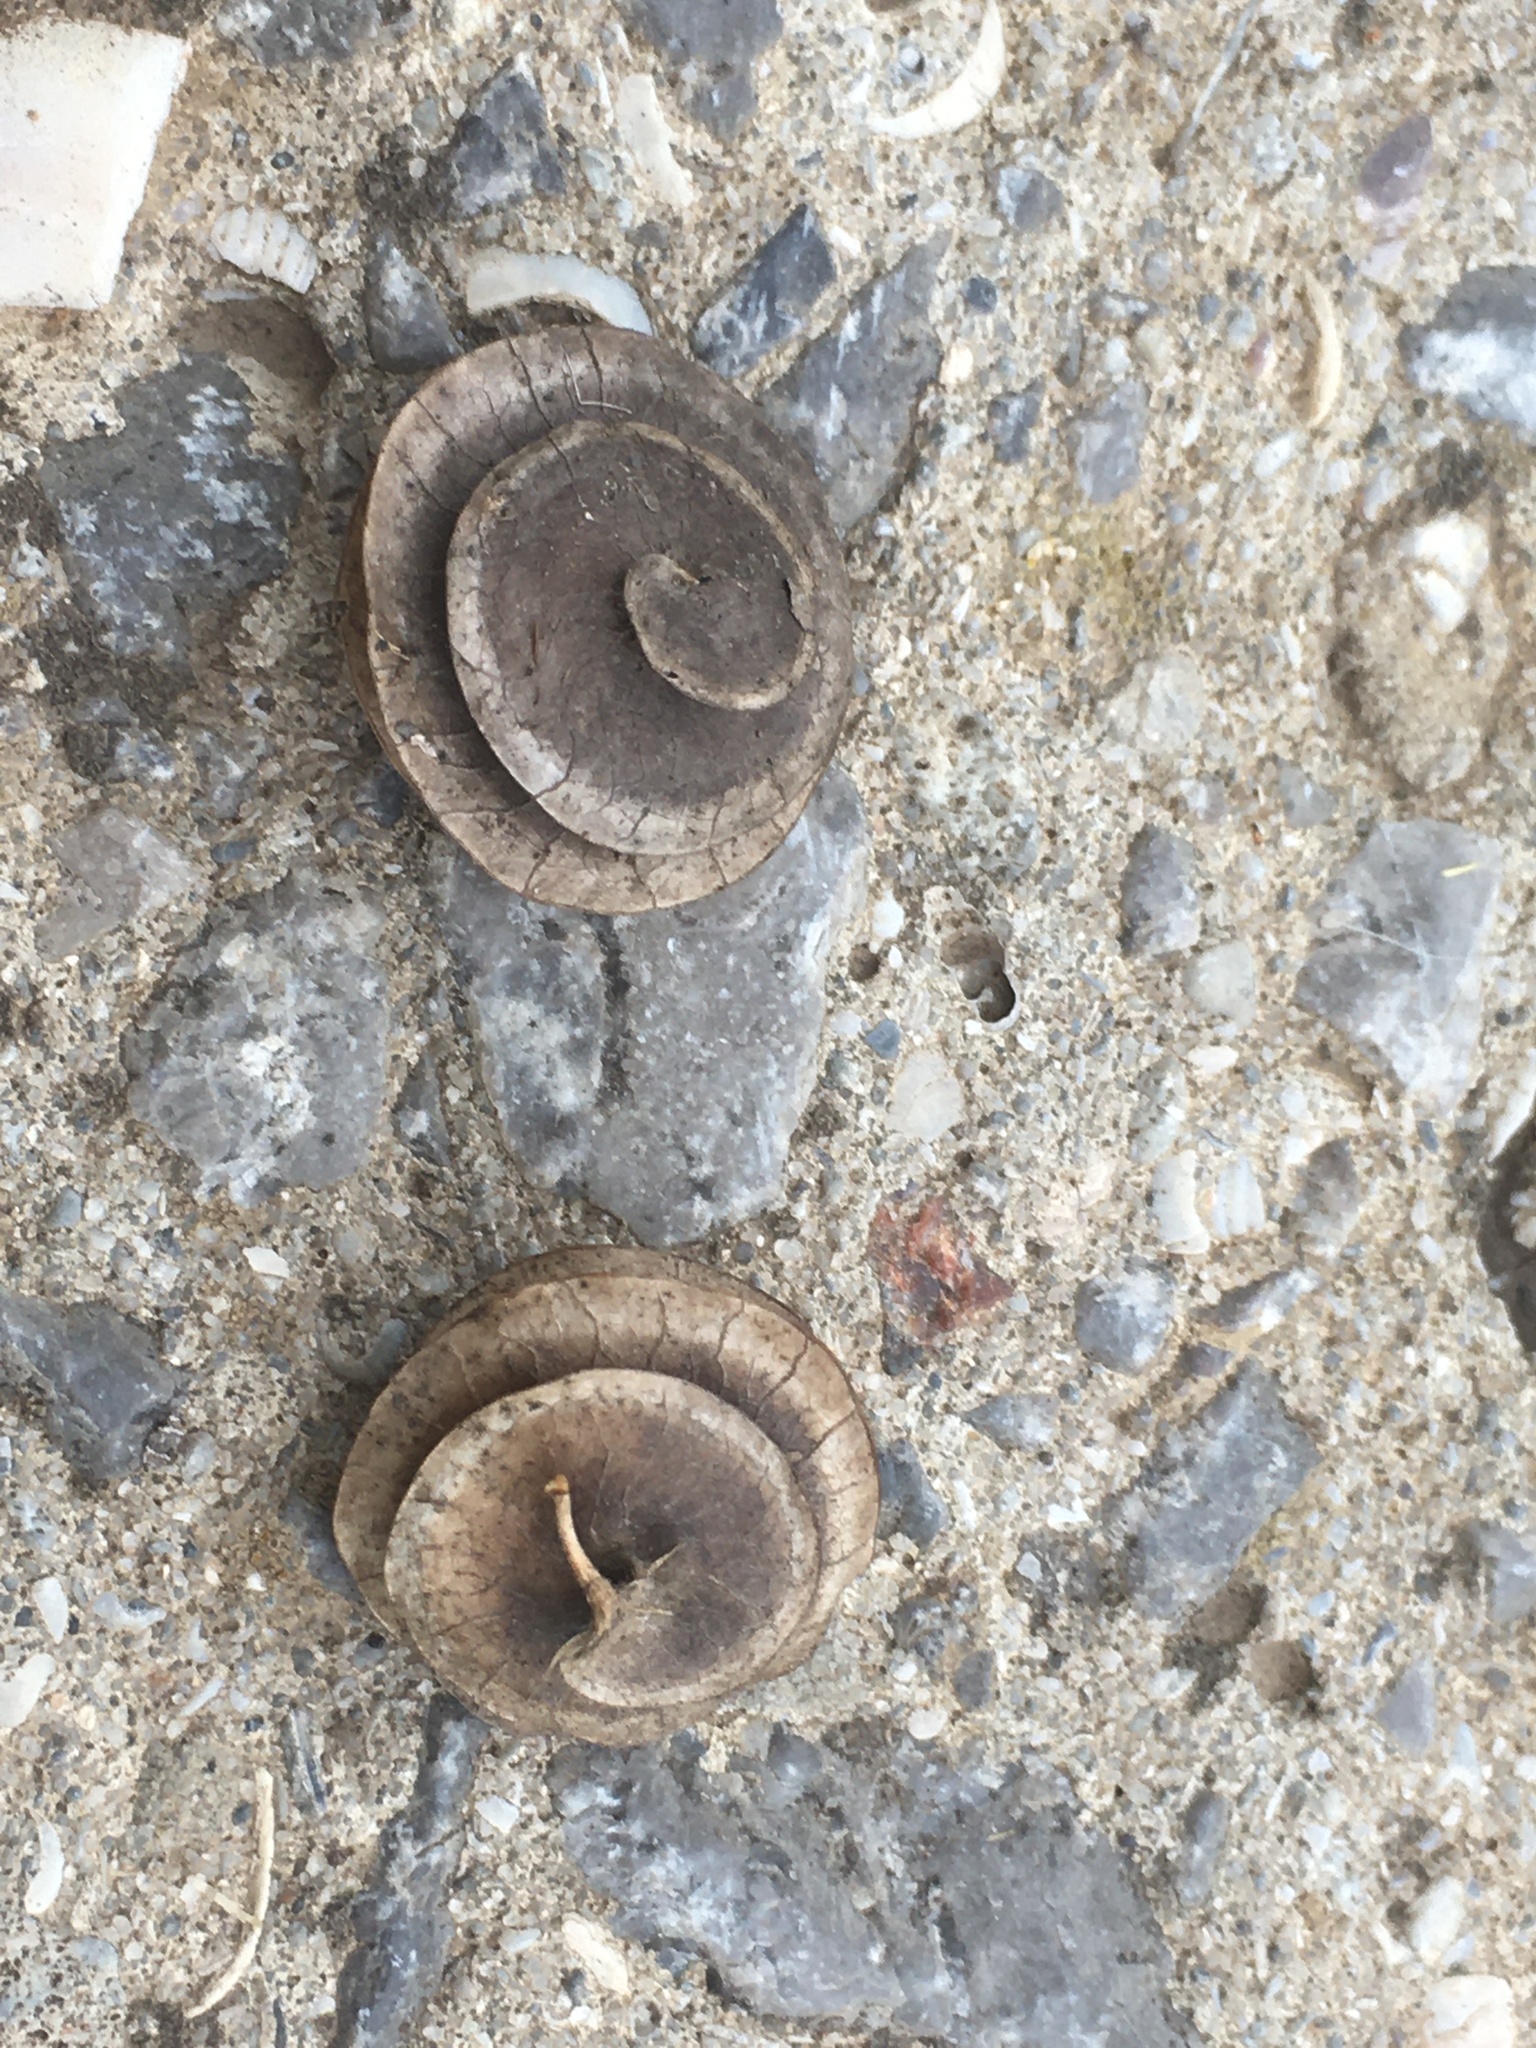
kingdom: Plantae
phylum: Tracheophyta
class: Magnoliopsida
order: Fabales
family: Fabaceae
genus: Medicago
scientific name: Medicago orbicularis
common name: Button medick
